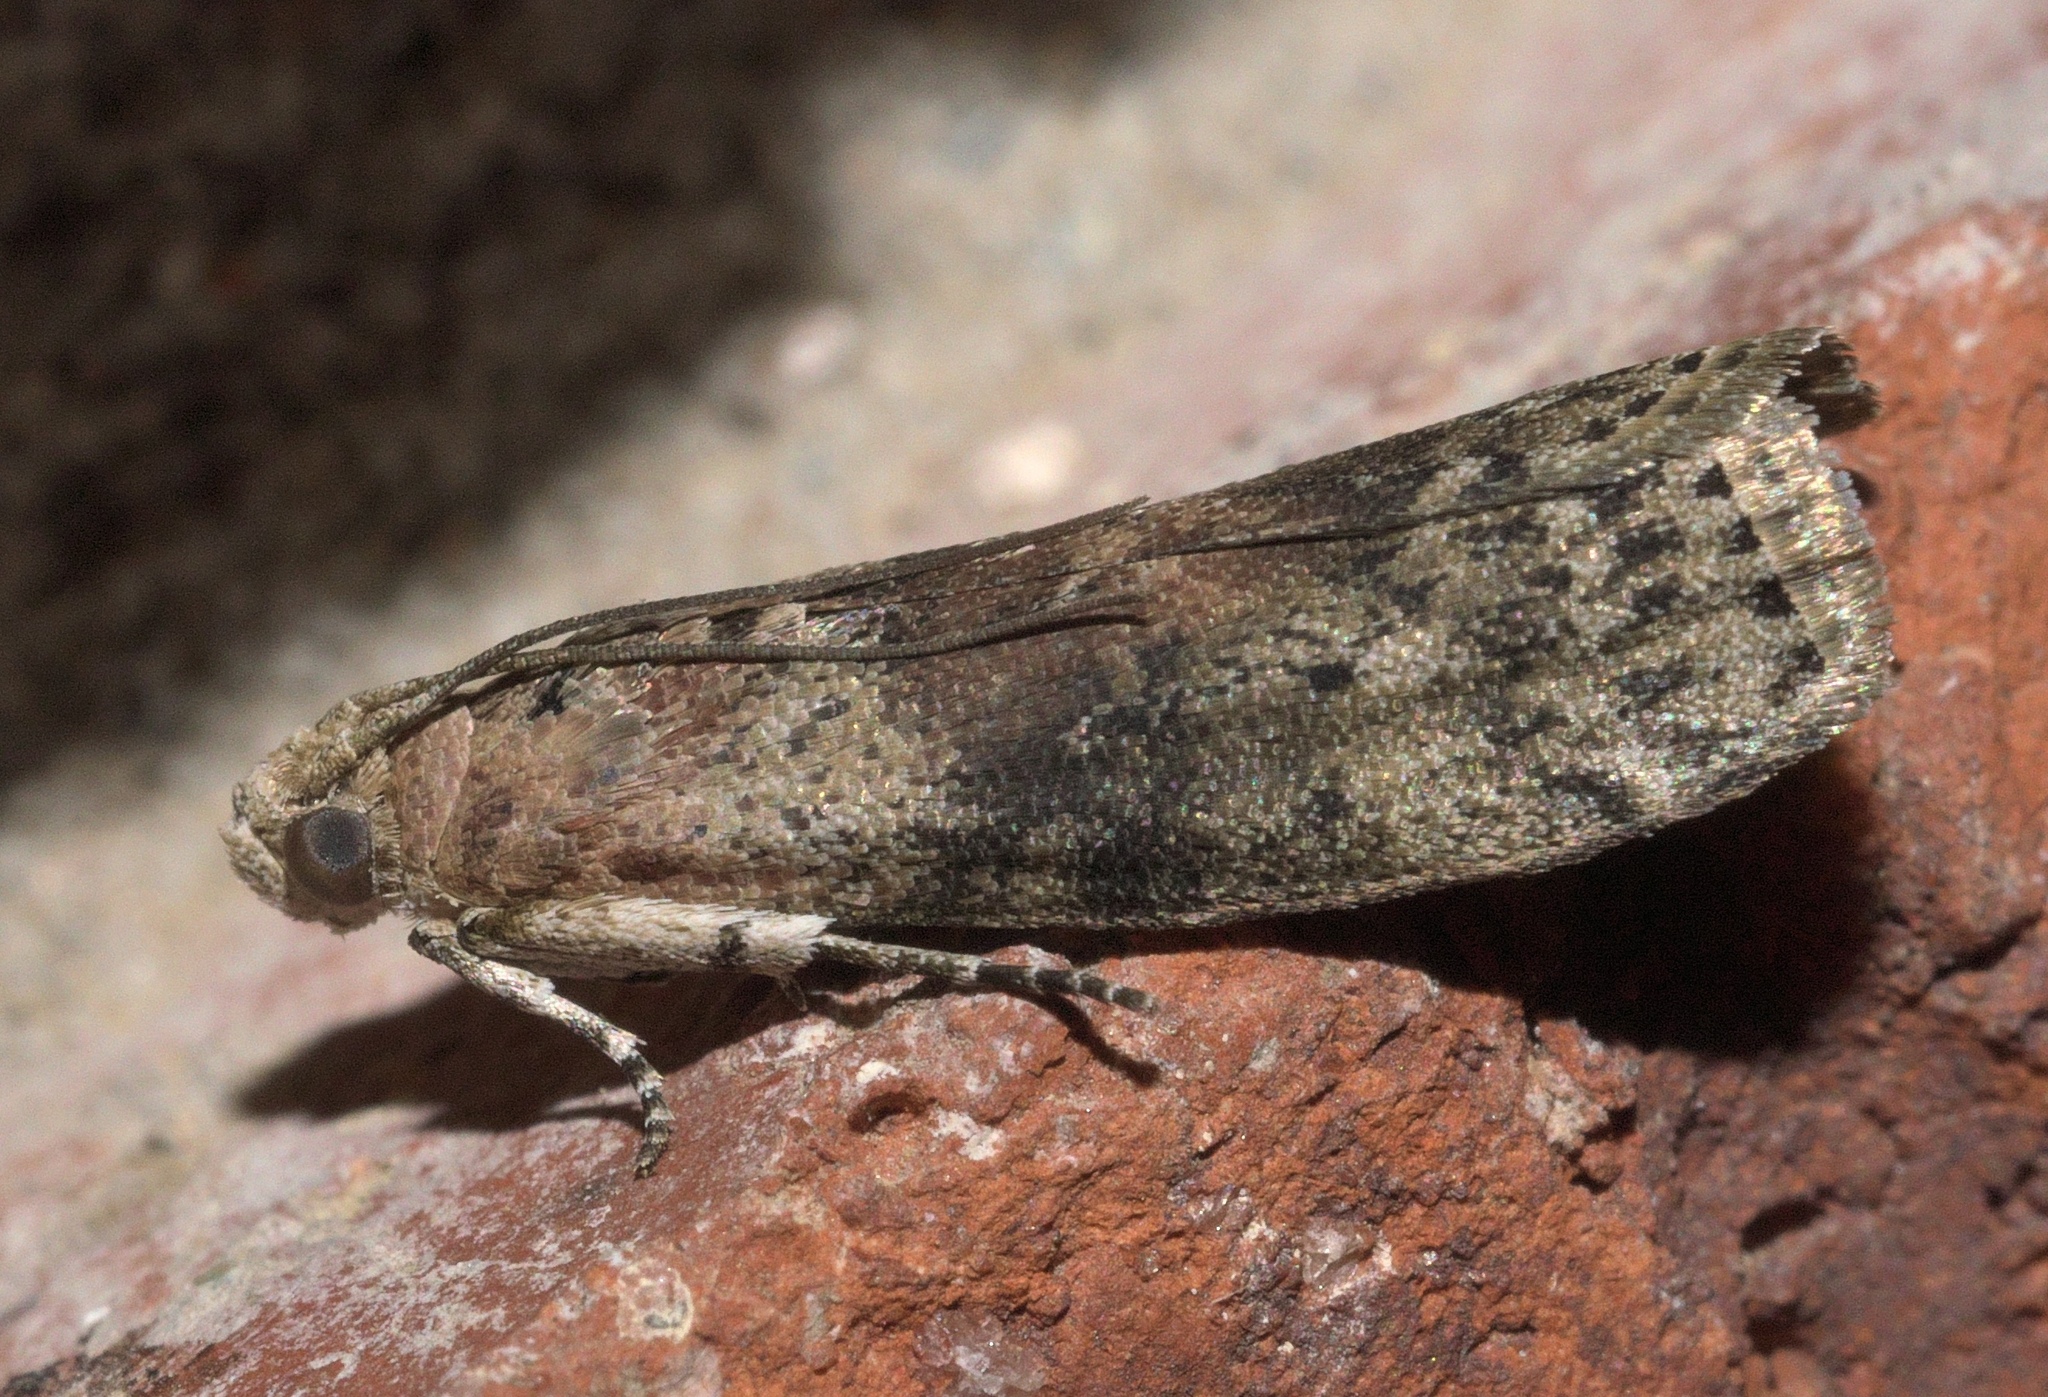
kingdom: Animalia
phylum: Arthropoda
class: Insecta
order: Lepidoptera
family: Pyralidae
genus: Sciota
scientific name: Sciota celtidella
